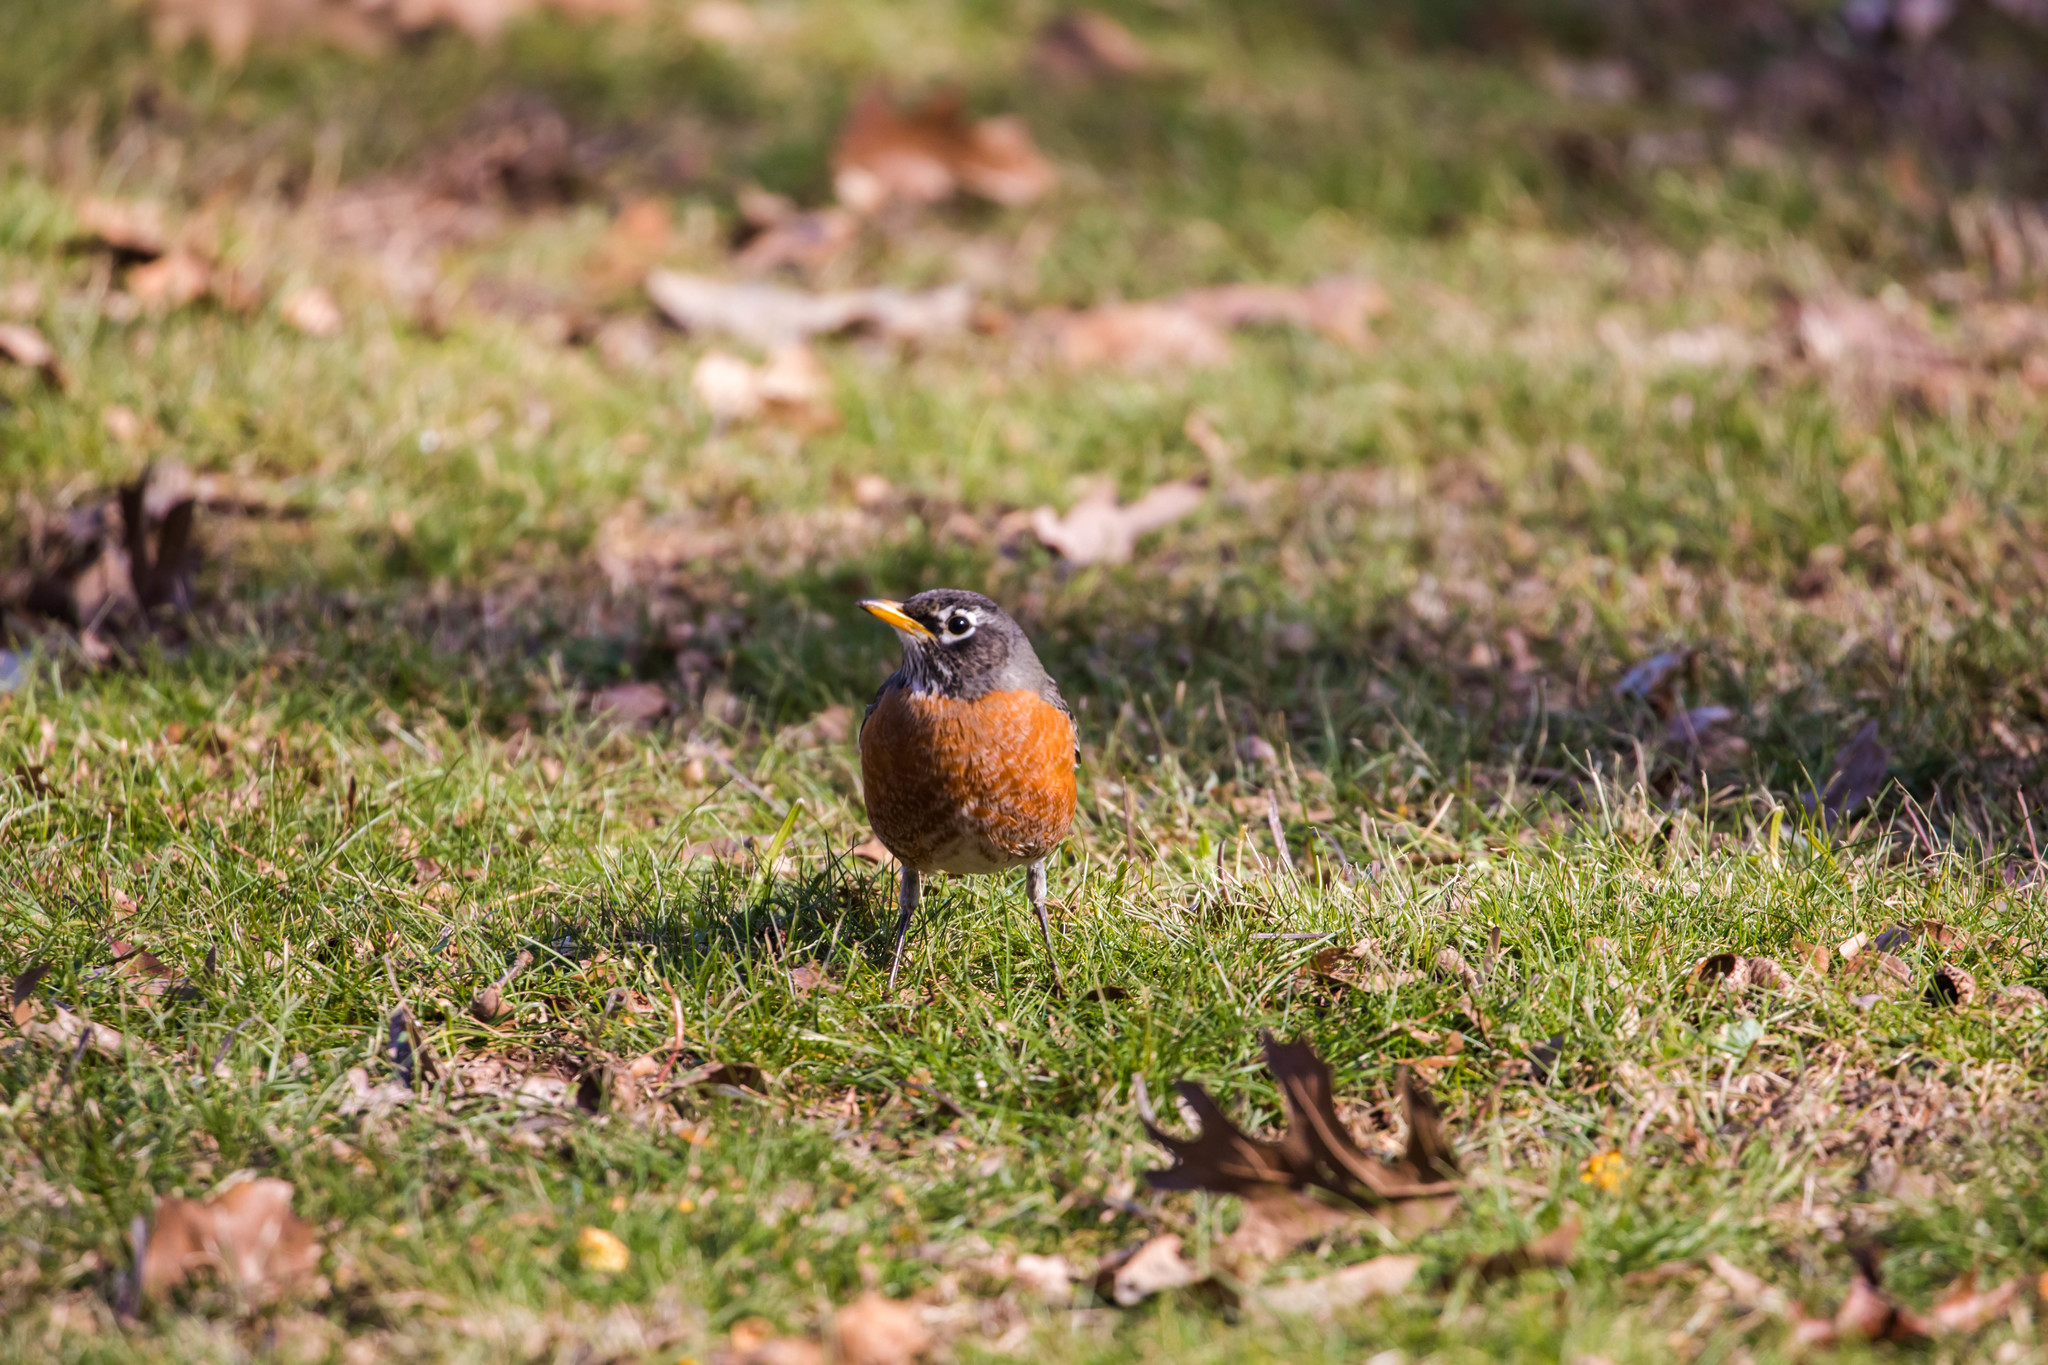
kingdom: Animalia
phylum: Chordata
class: Aves
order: Passeriformes
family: Turdidae
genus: Turdus
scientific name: Turdus migratorius
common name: American robin
